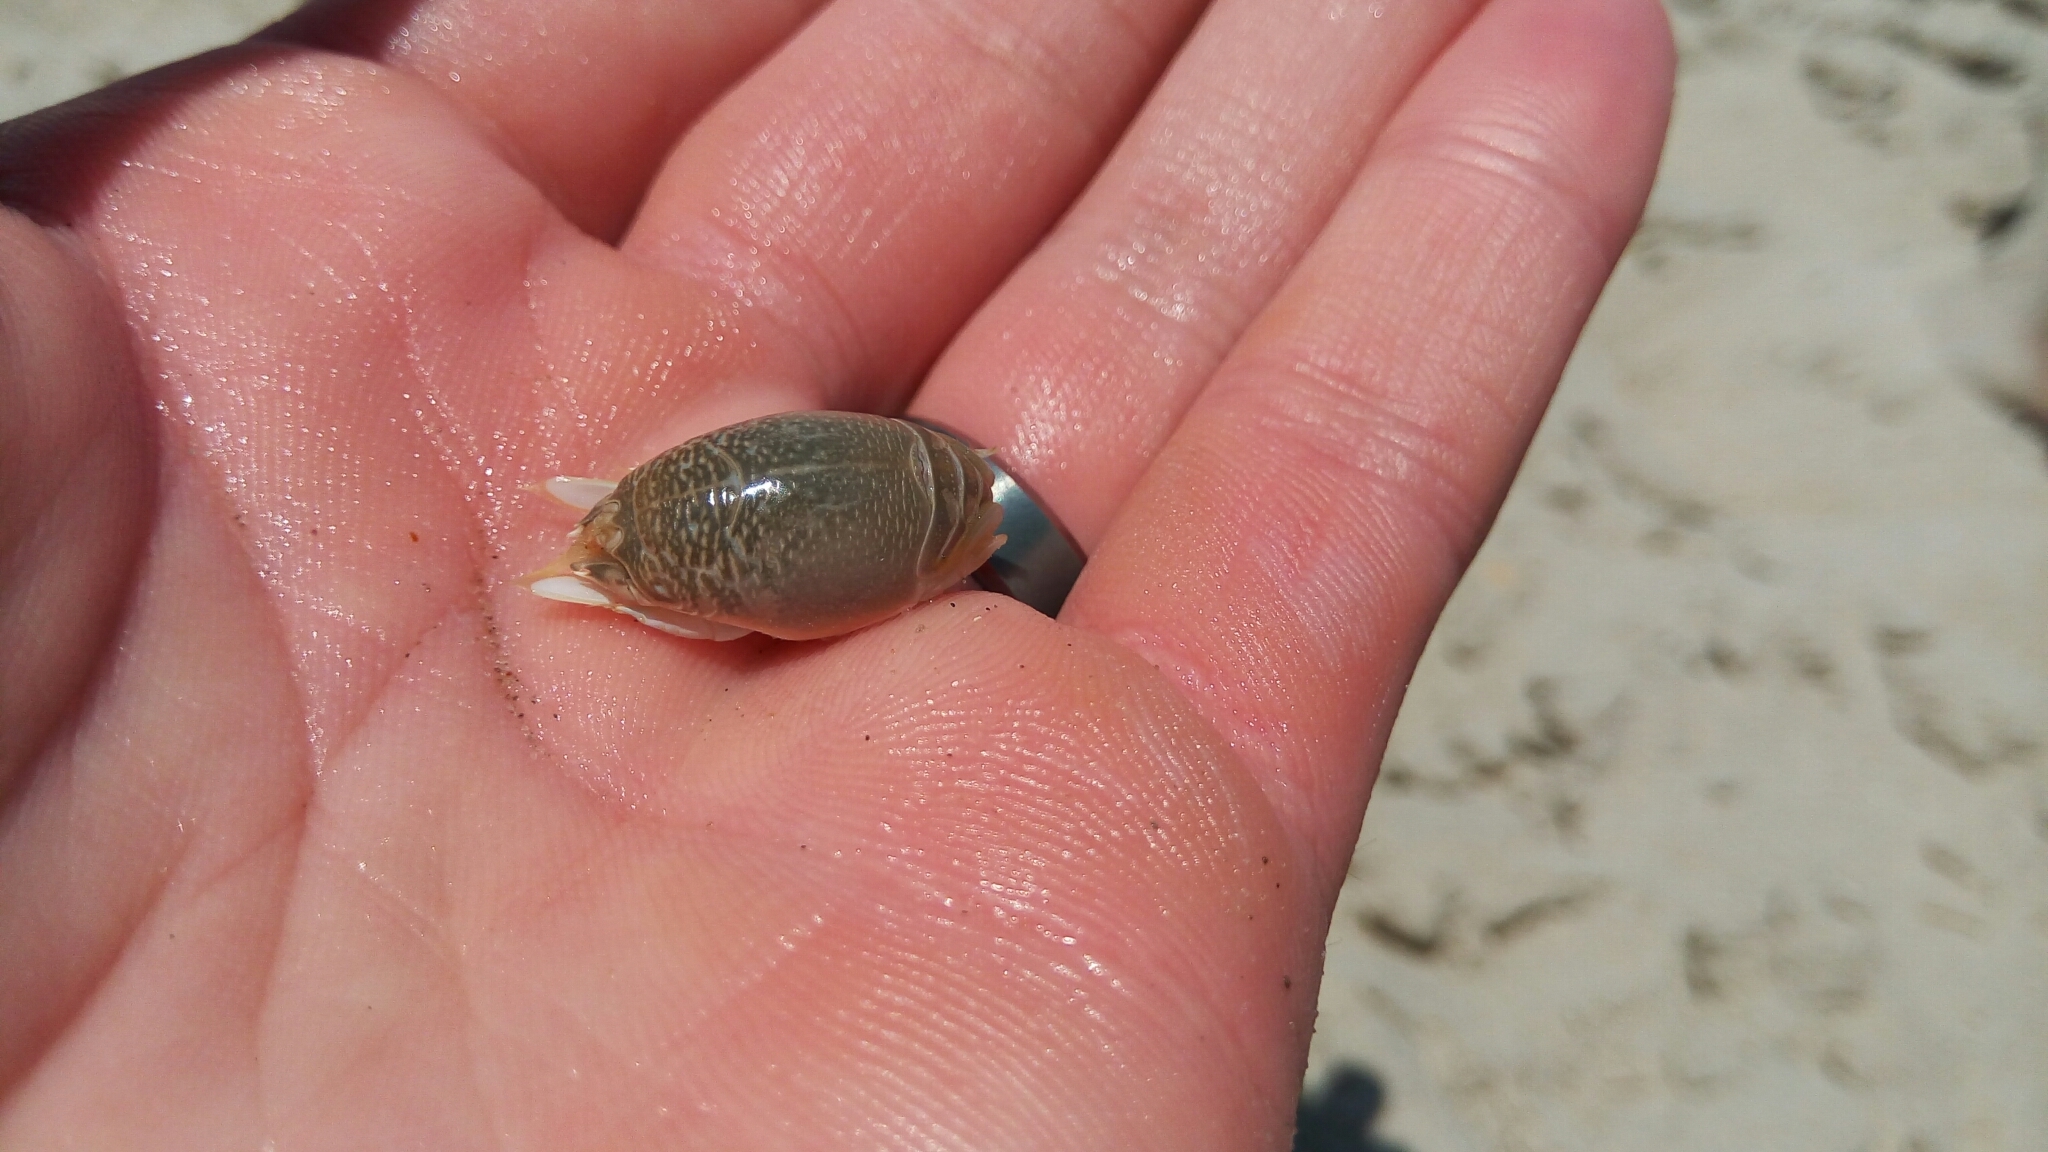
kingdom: Animalia
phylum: Arthropoda
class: Malacostraca
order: Decapoda
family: Hippidae
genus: Emerita
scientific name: Emerita talpoida
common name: Atlantic sand crab
